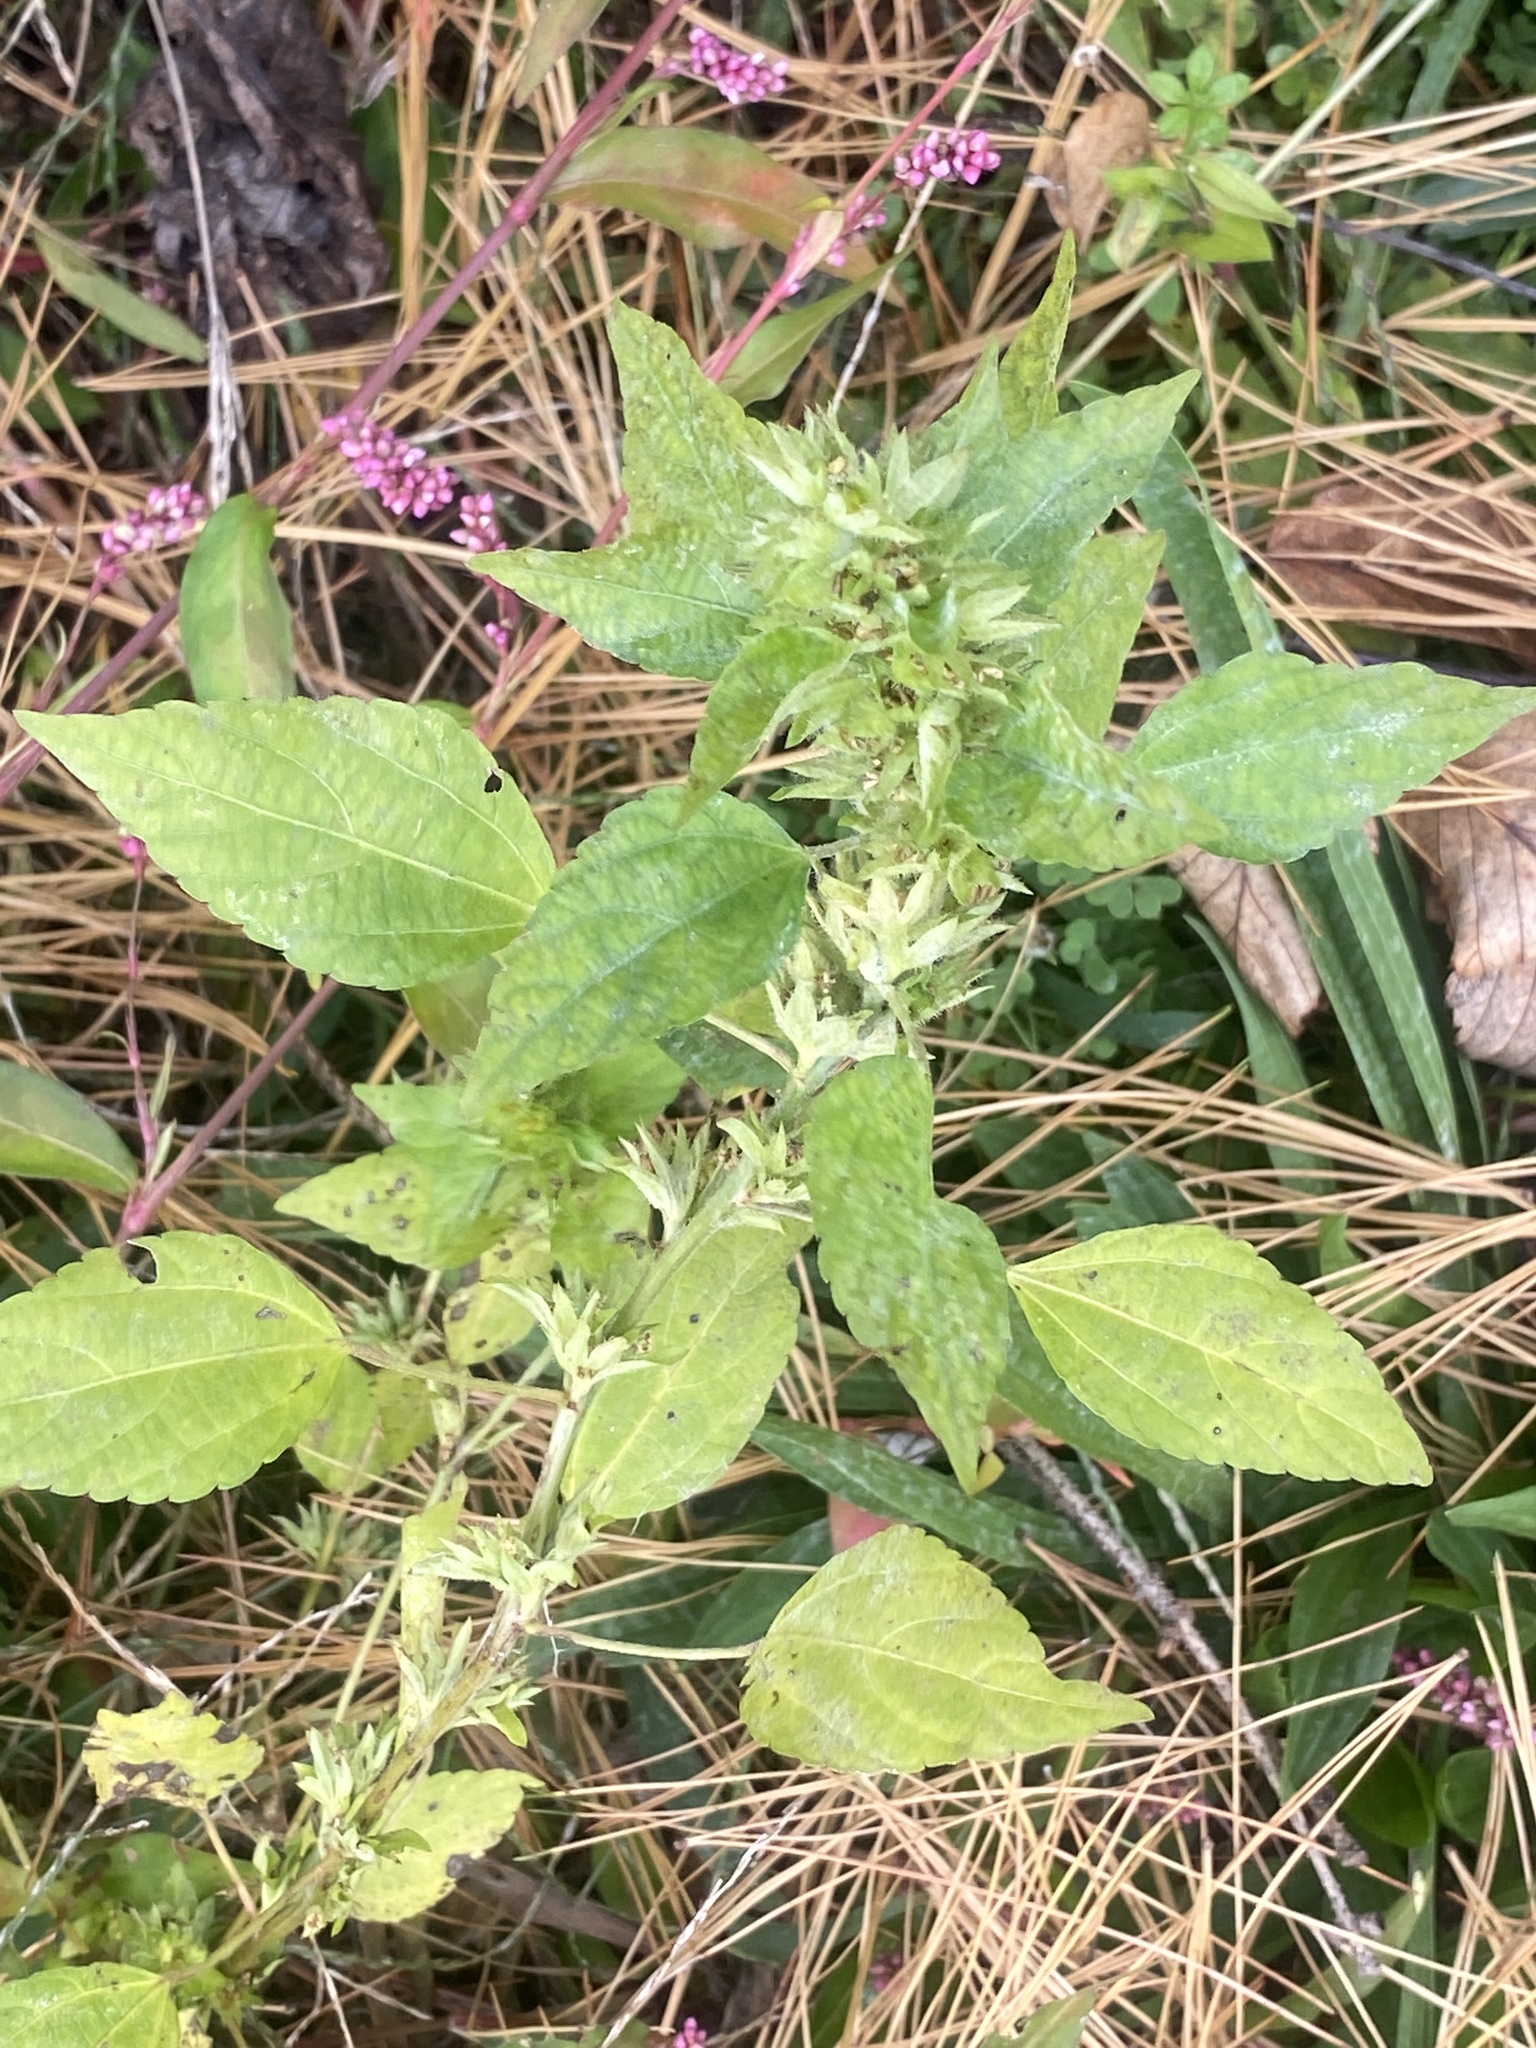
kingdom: Plantae
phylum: Tracheophyta
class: Magnoliopsida
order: Malpighiales
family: Euphorbiaceae
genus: Acalypha
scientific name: Acalypha rhomboidea
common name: Rhombic copperleaf
